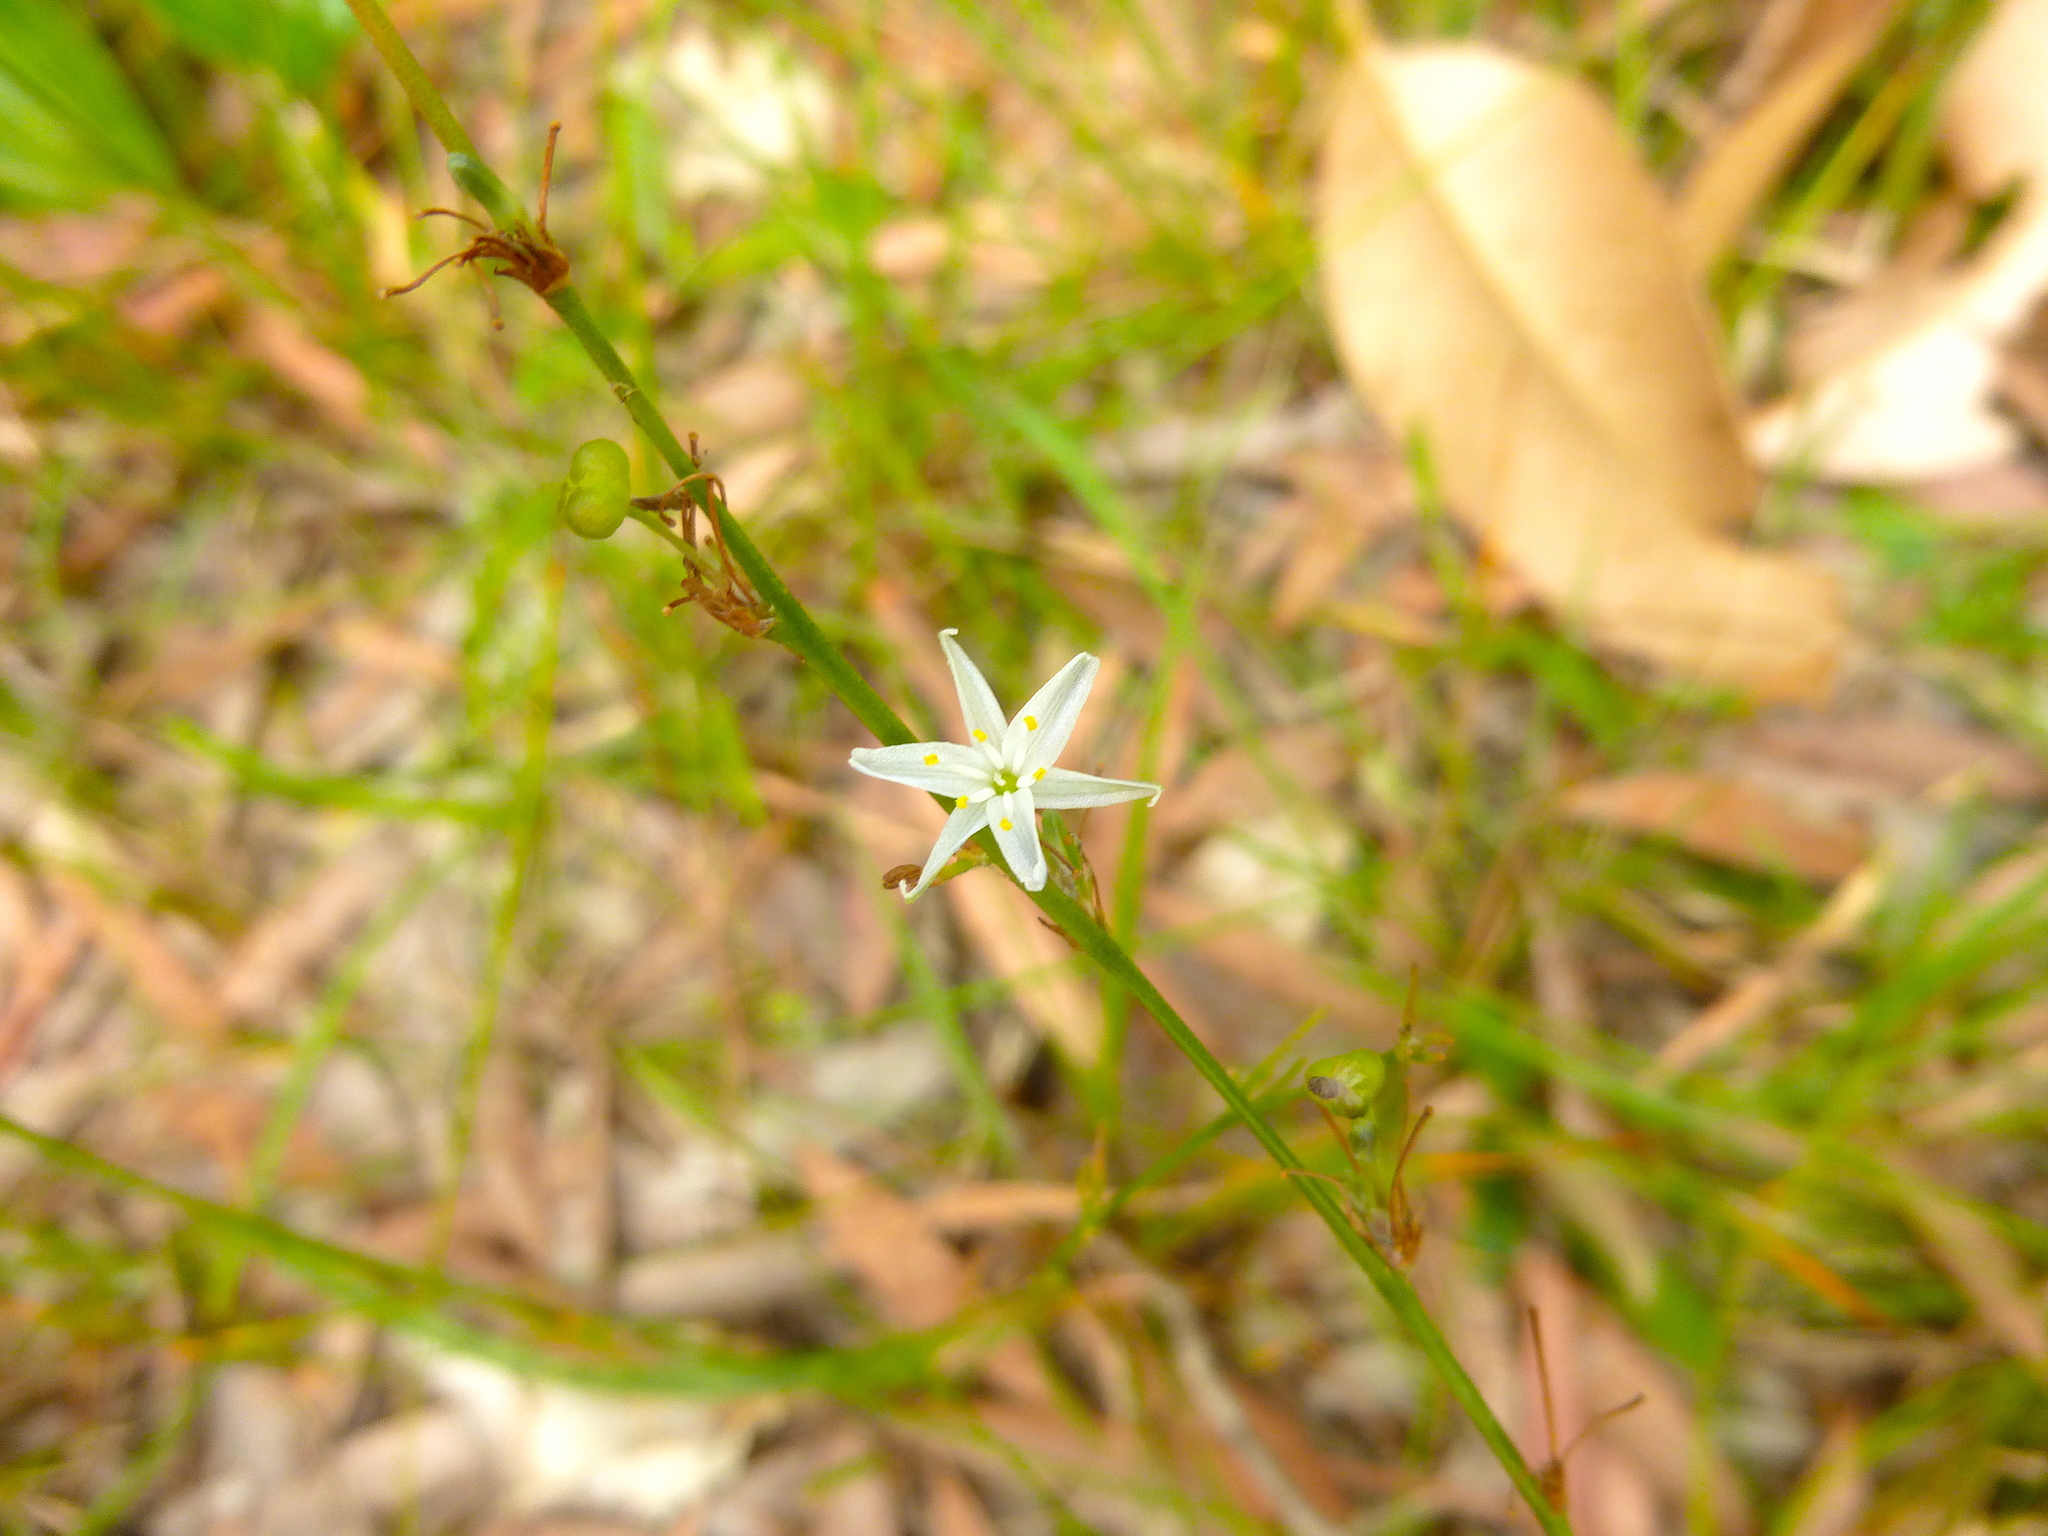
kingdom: Plantae
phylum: Tracheophyta
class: Liliopsida
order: Asparagales
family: Asphodelaceae
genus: Caesia
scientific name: Caesia parviflora
